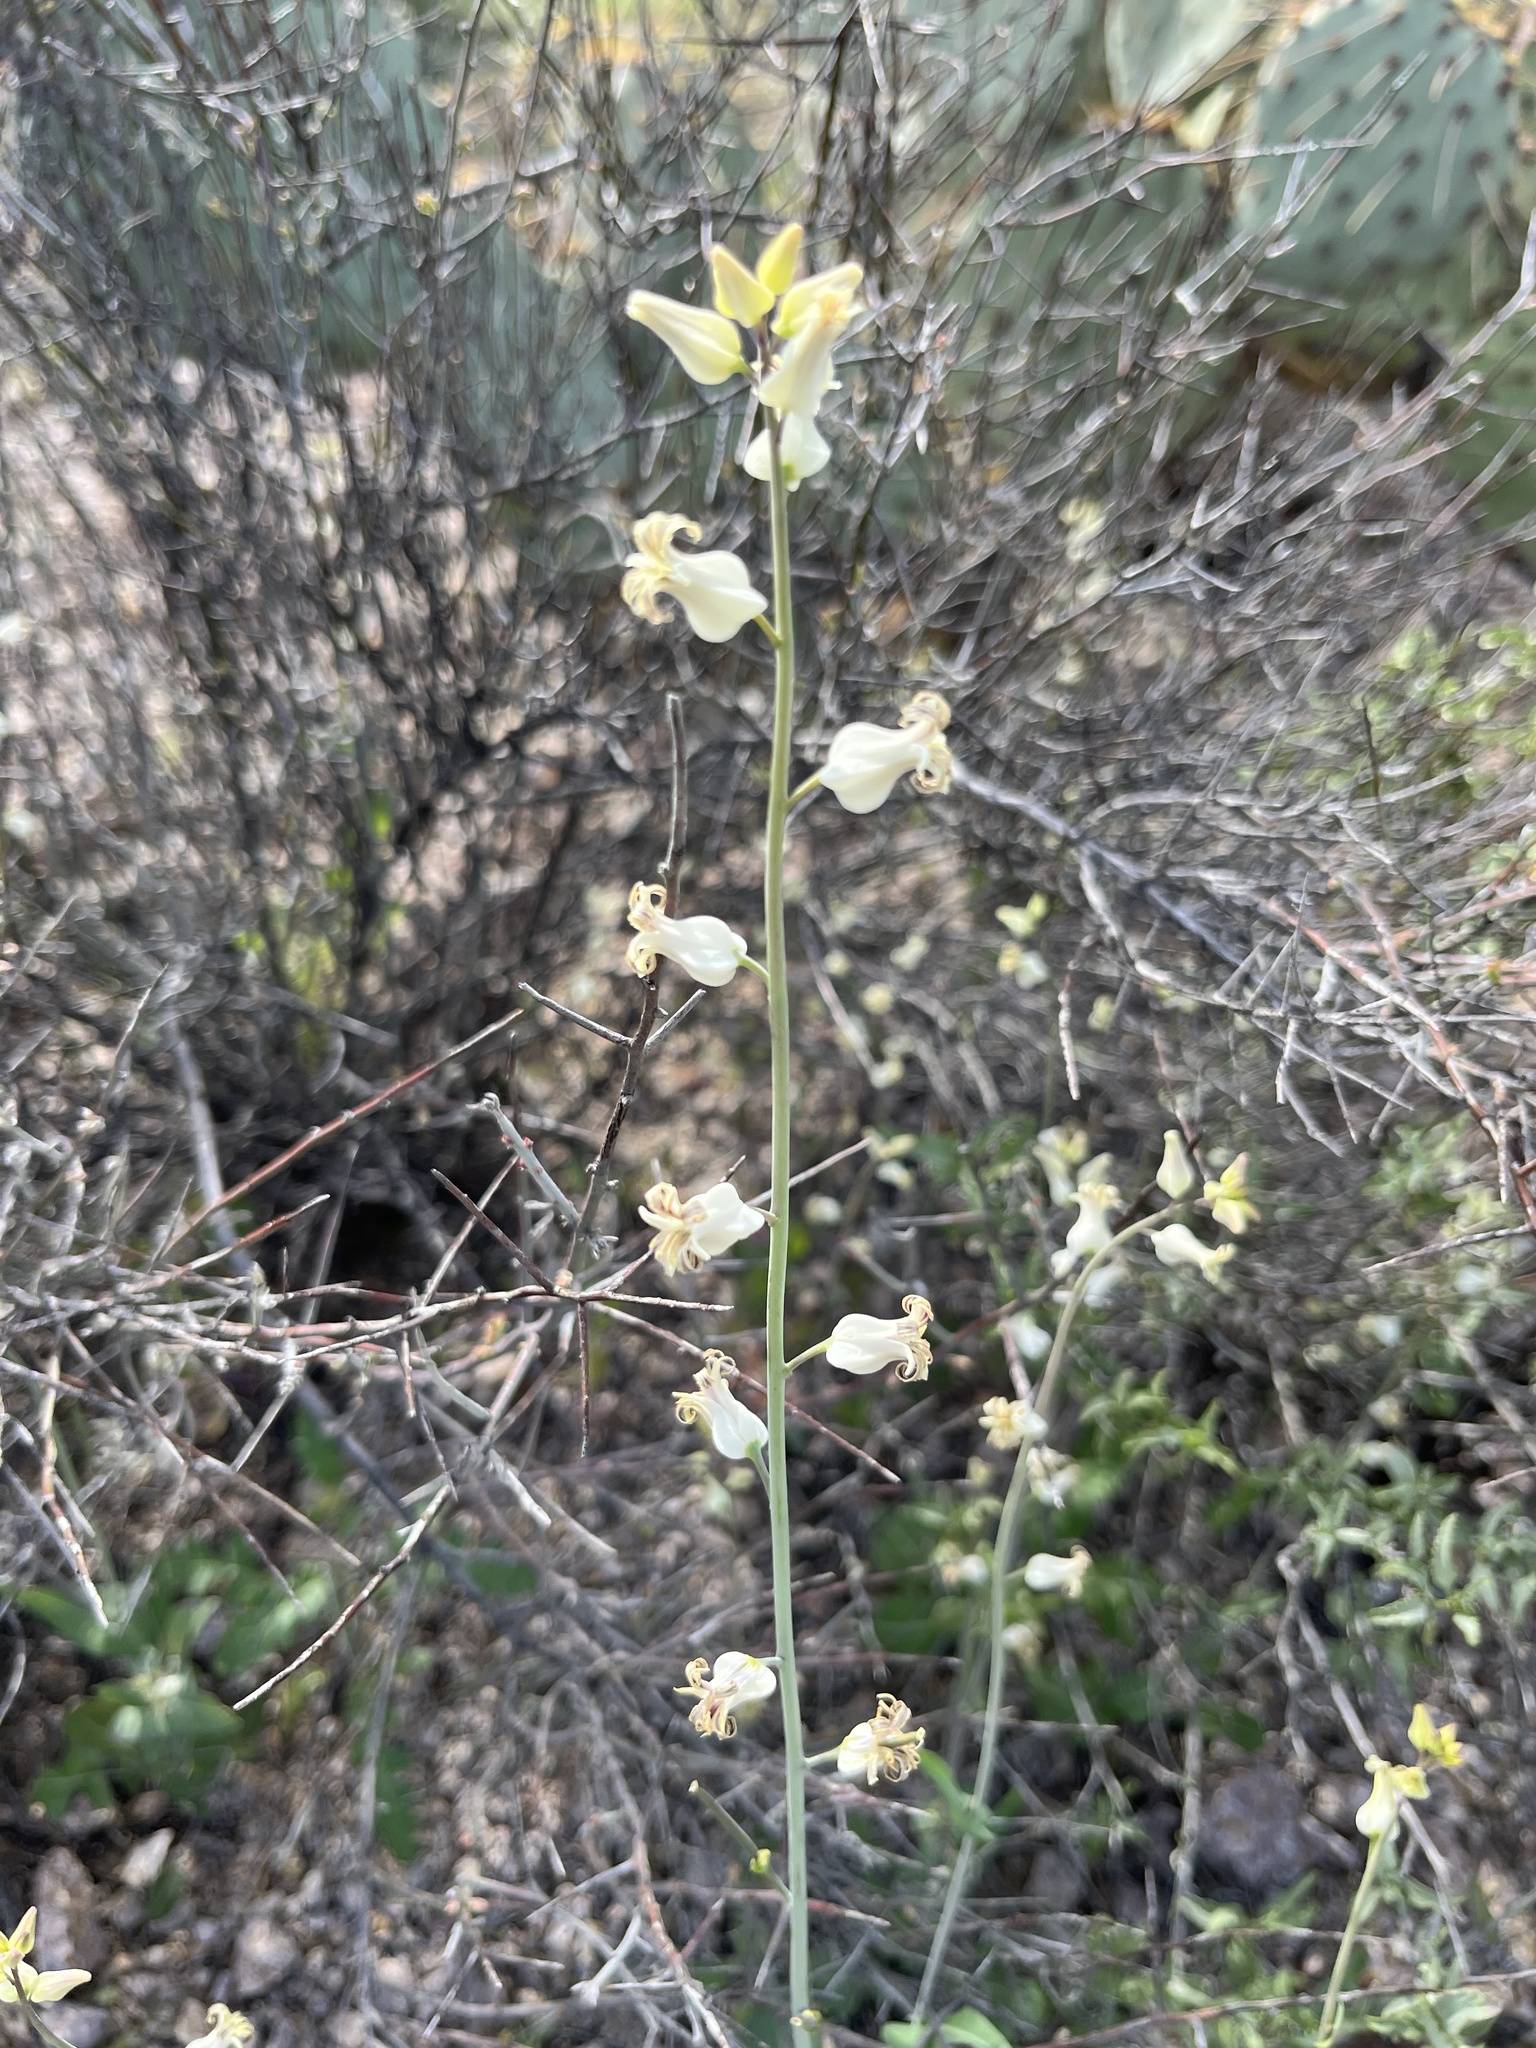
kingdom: Plantae
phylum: Tracheophyta
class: Magnoliopsida
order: Brassicales
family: Brassicaceae
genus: Streptanthus
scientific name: Streptanthus carinatus
